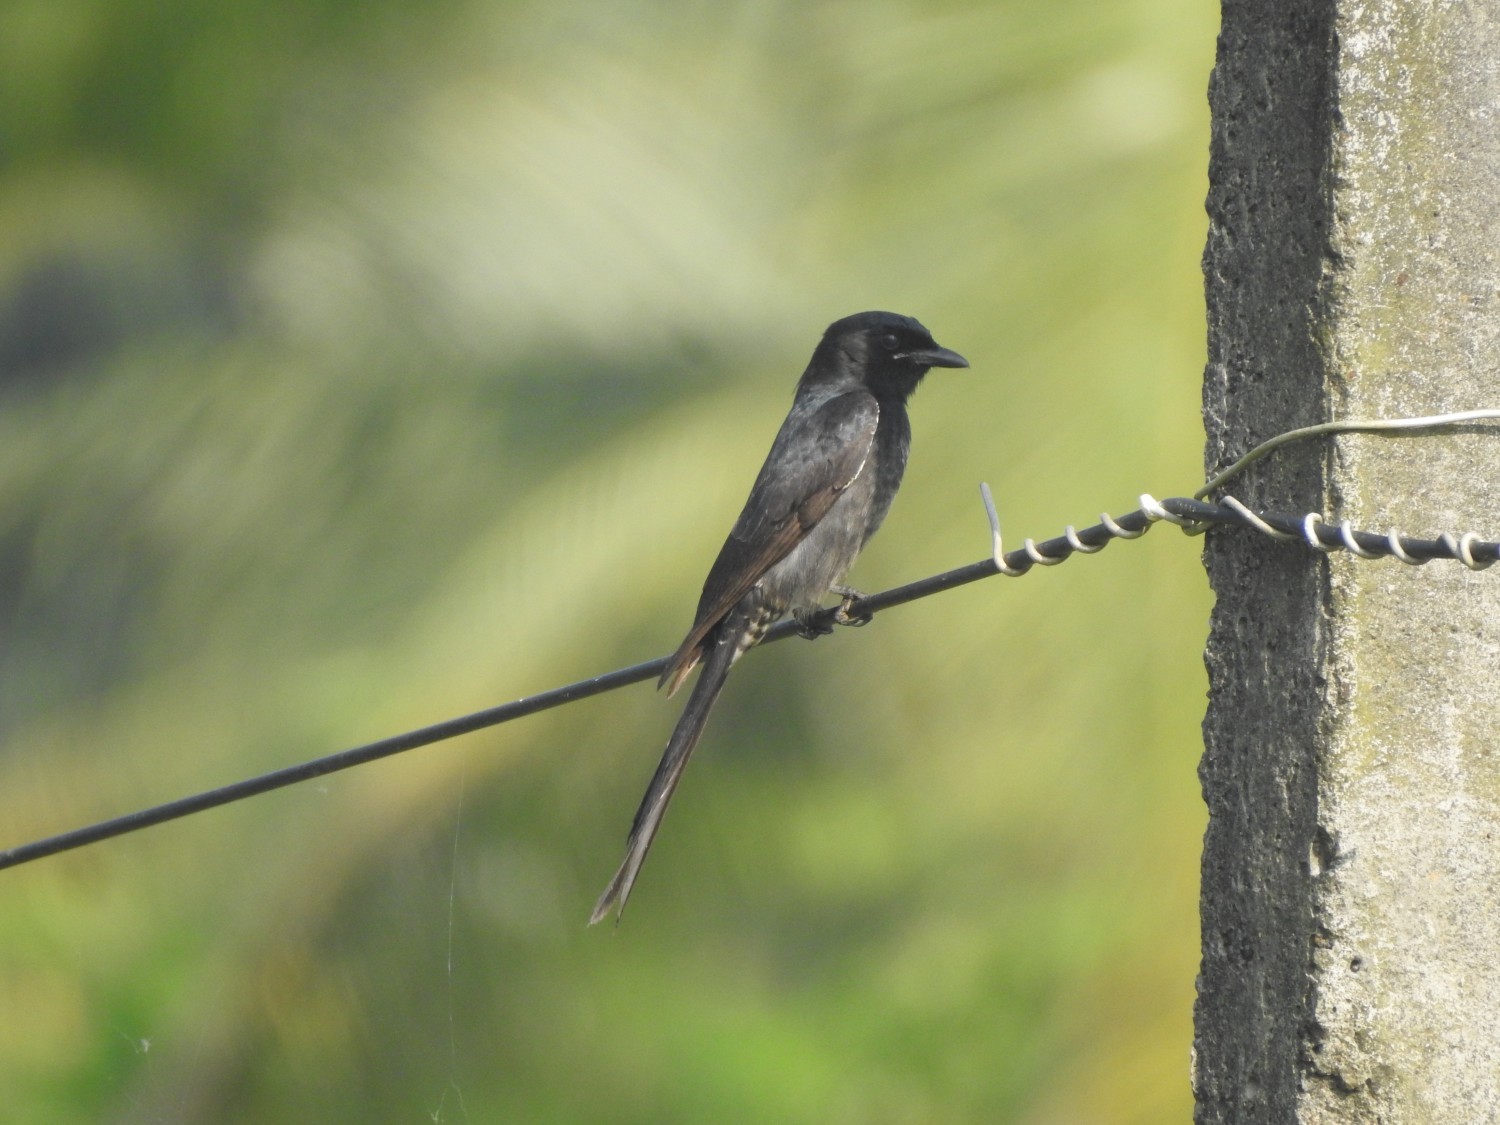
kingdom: Animalia
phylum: Chordata
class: Aves
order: Passeriformes
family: Dicruridae
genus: Dicrurus
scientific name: Dicrurus macrocercus
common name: Black drongo
